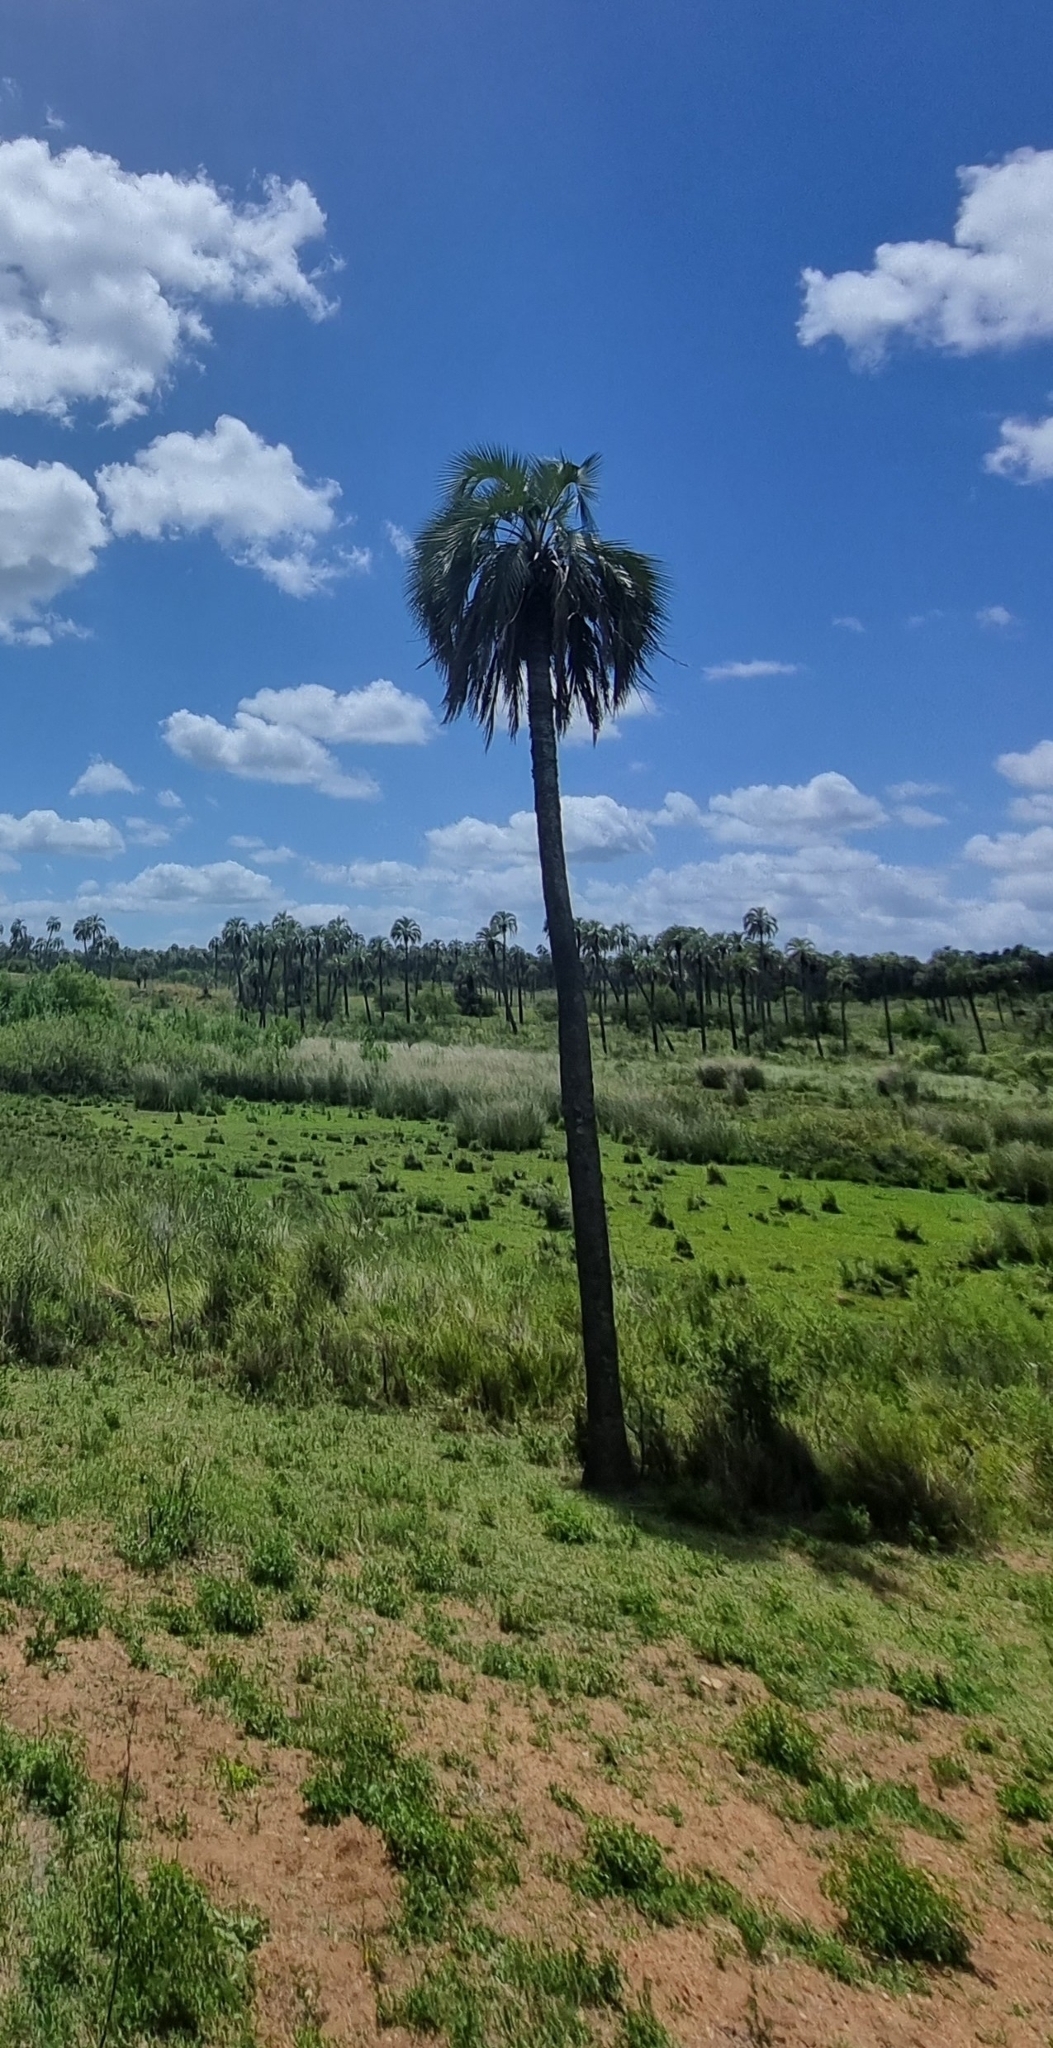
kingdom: Plantae
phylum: Tracheophyta
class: Liliopsida
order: Arecales
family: Arecaceae
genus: Butia
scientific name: Butia yatay
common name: Yatay palm
